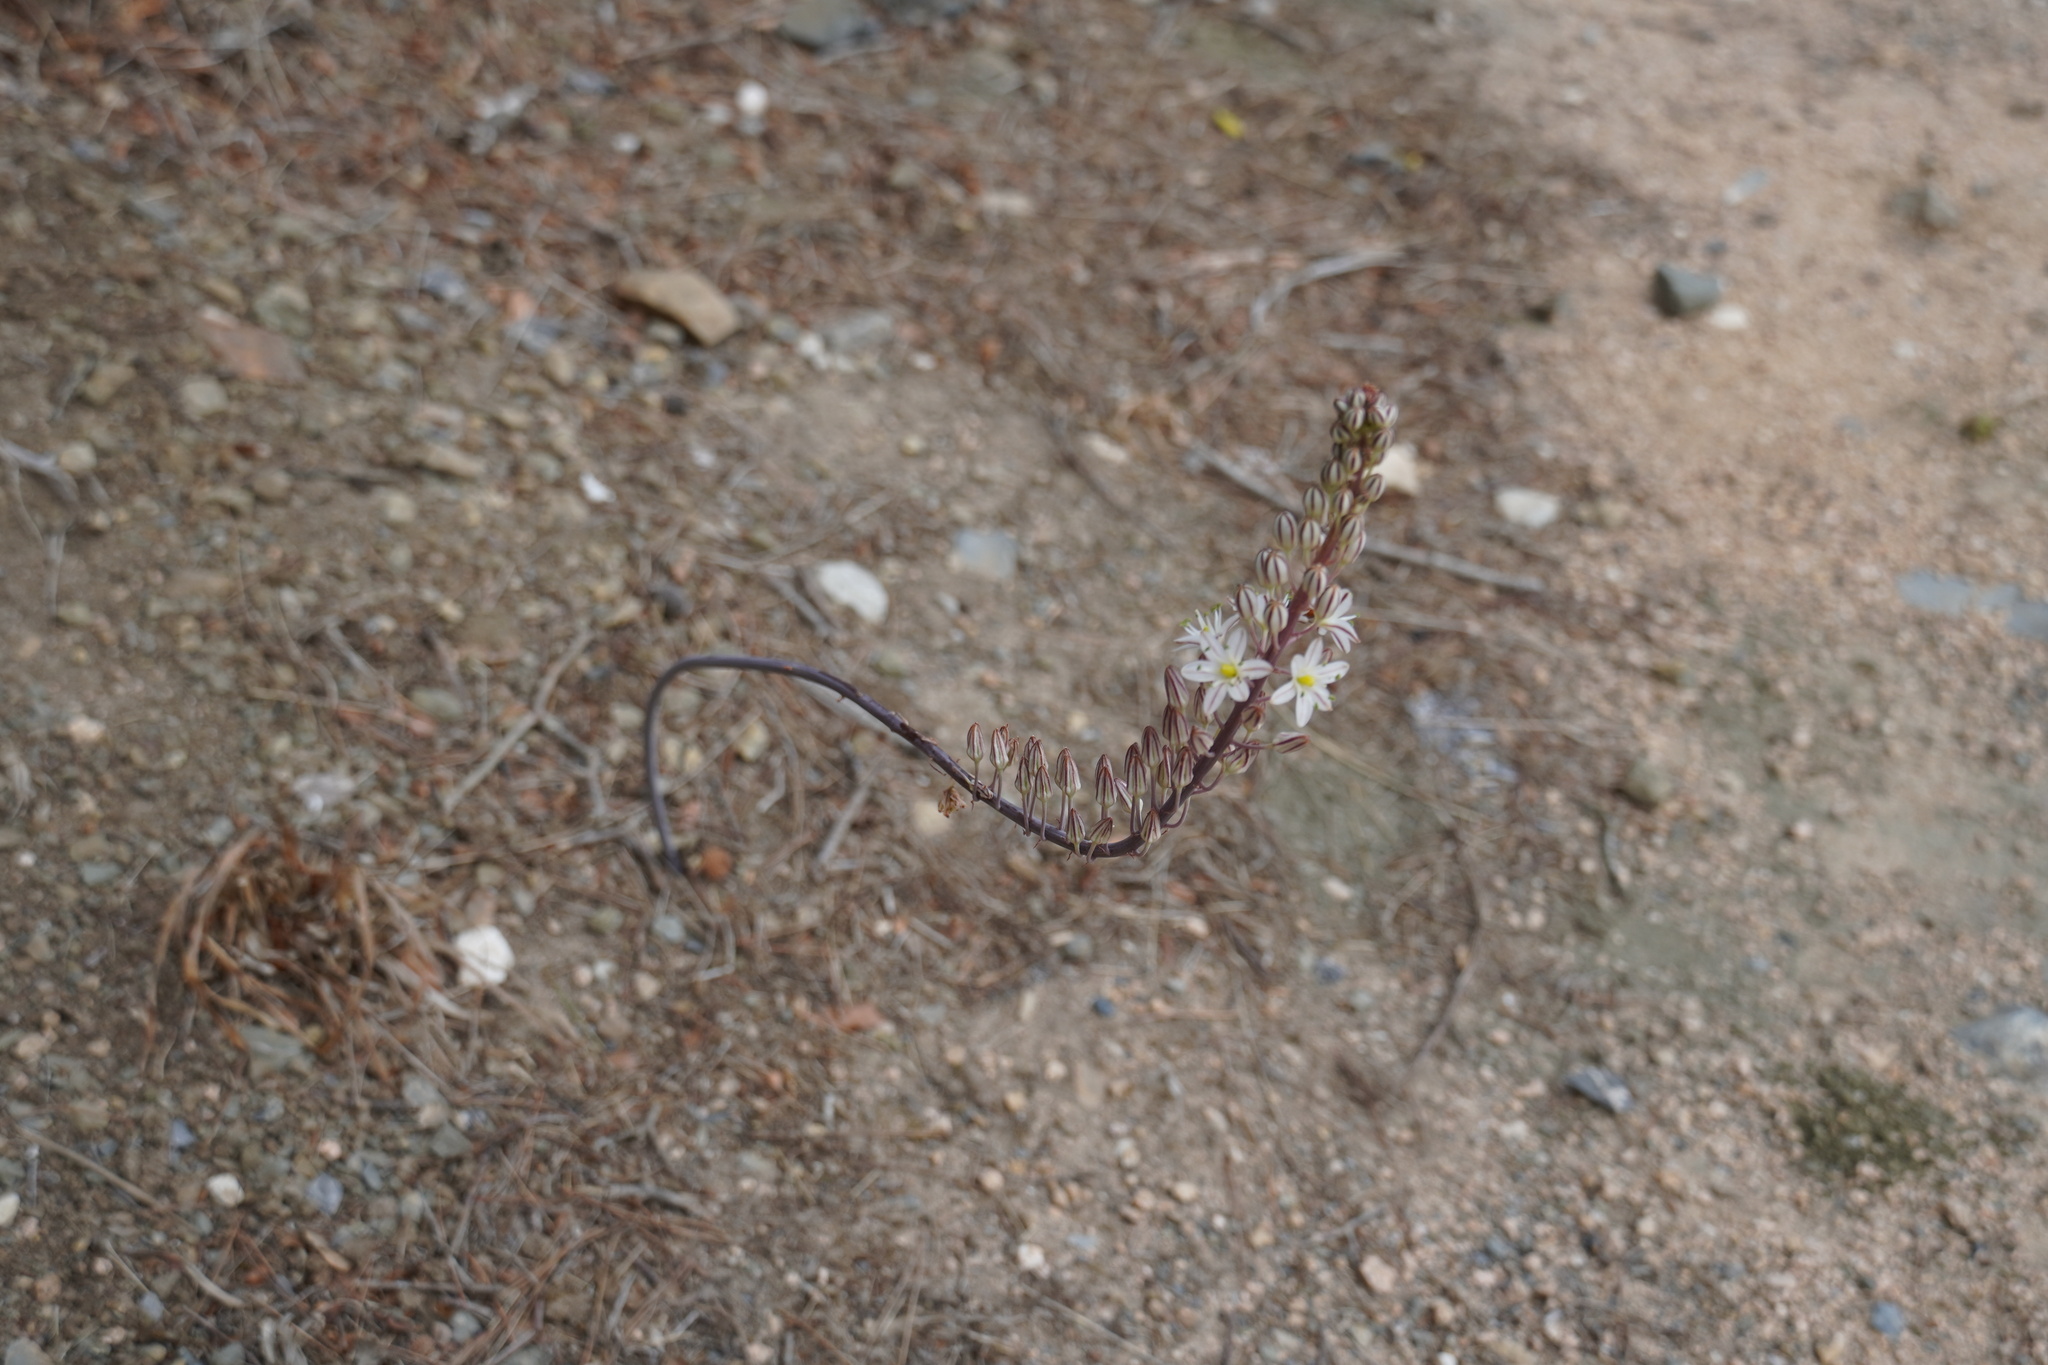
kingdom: Plantae
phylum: Tracheophyta
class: Liliopsida
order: Asparagales
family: Asparagaceae
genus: Drimia
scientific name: Drimia maritima
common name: Maritime squill
